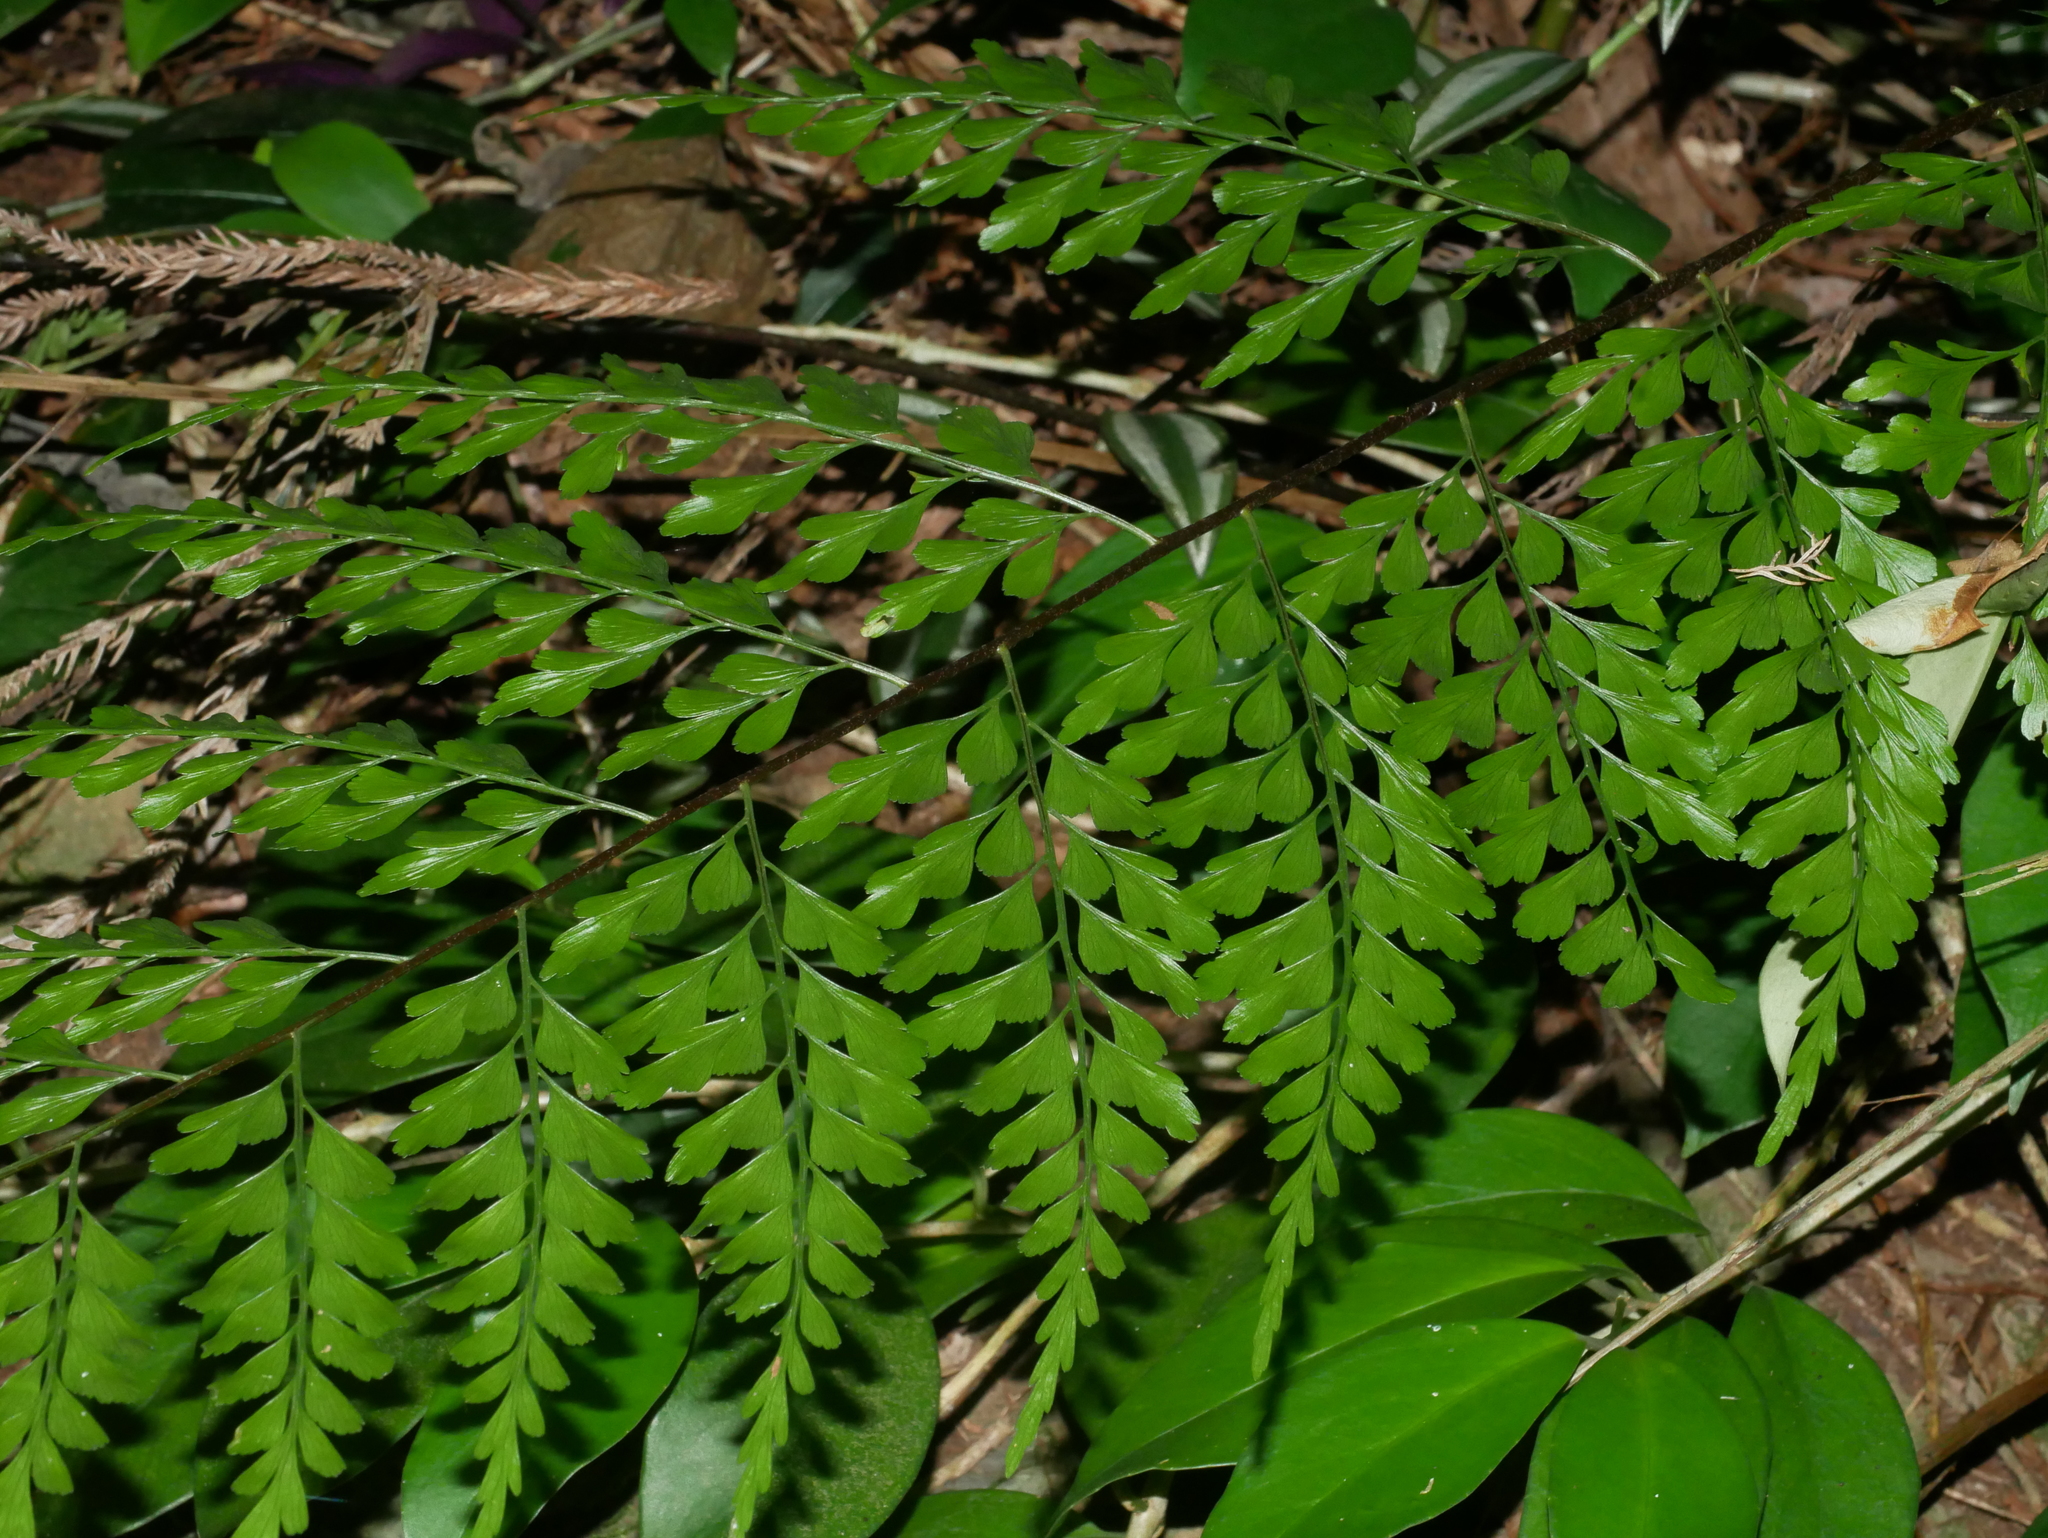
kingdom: Plantae
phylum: Tracheophyta
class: Polypodiopsida
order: Polypodiales
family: Aspleniaceae
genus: Asplenium
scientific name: Asplenium pseudolaserpitiifolium
